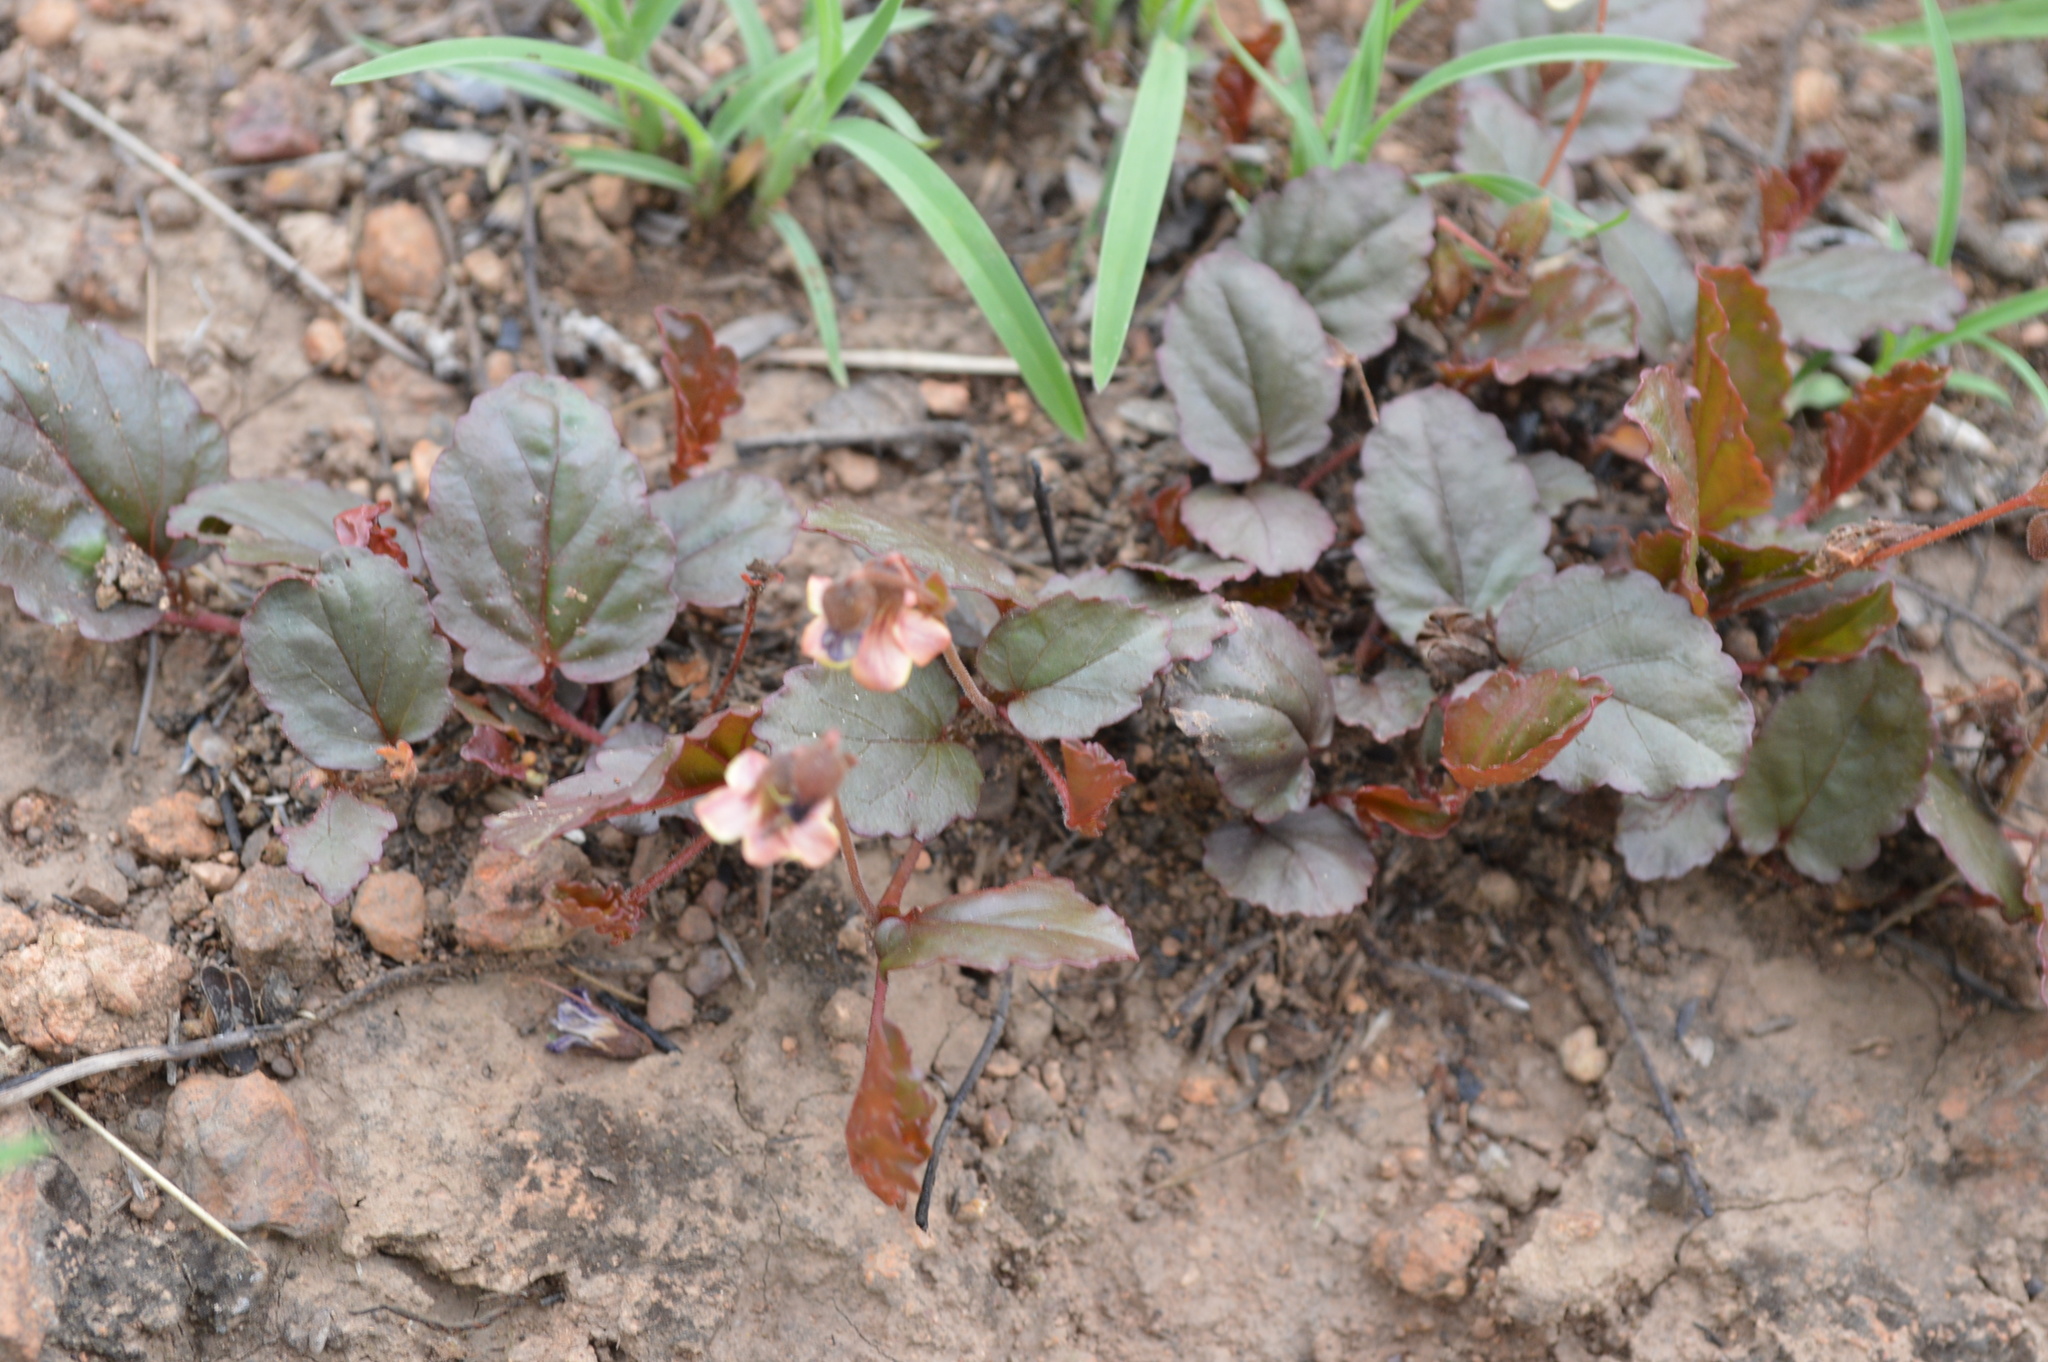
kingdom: Plantae
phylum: Tracheophyta
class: Magnoliopsida
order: Malvales
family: Malvaceae
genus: Hermannia
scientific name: Hermannia depressa
